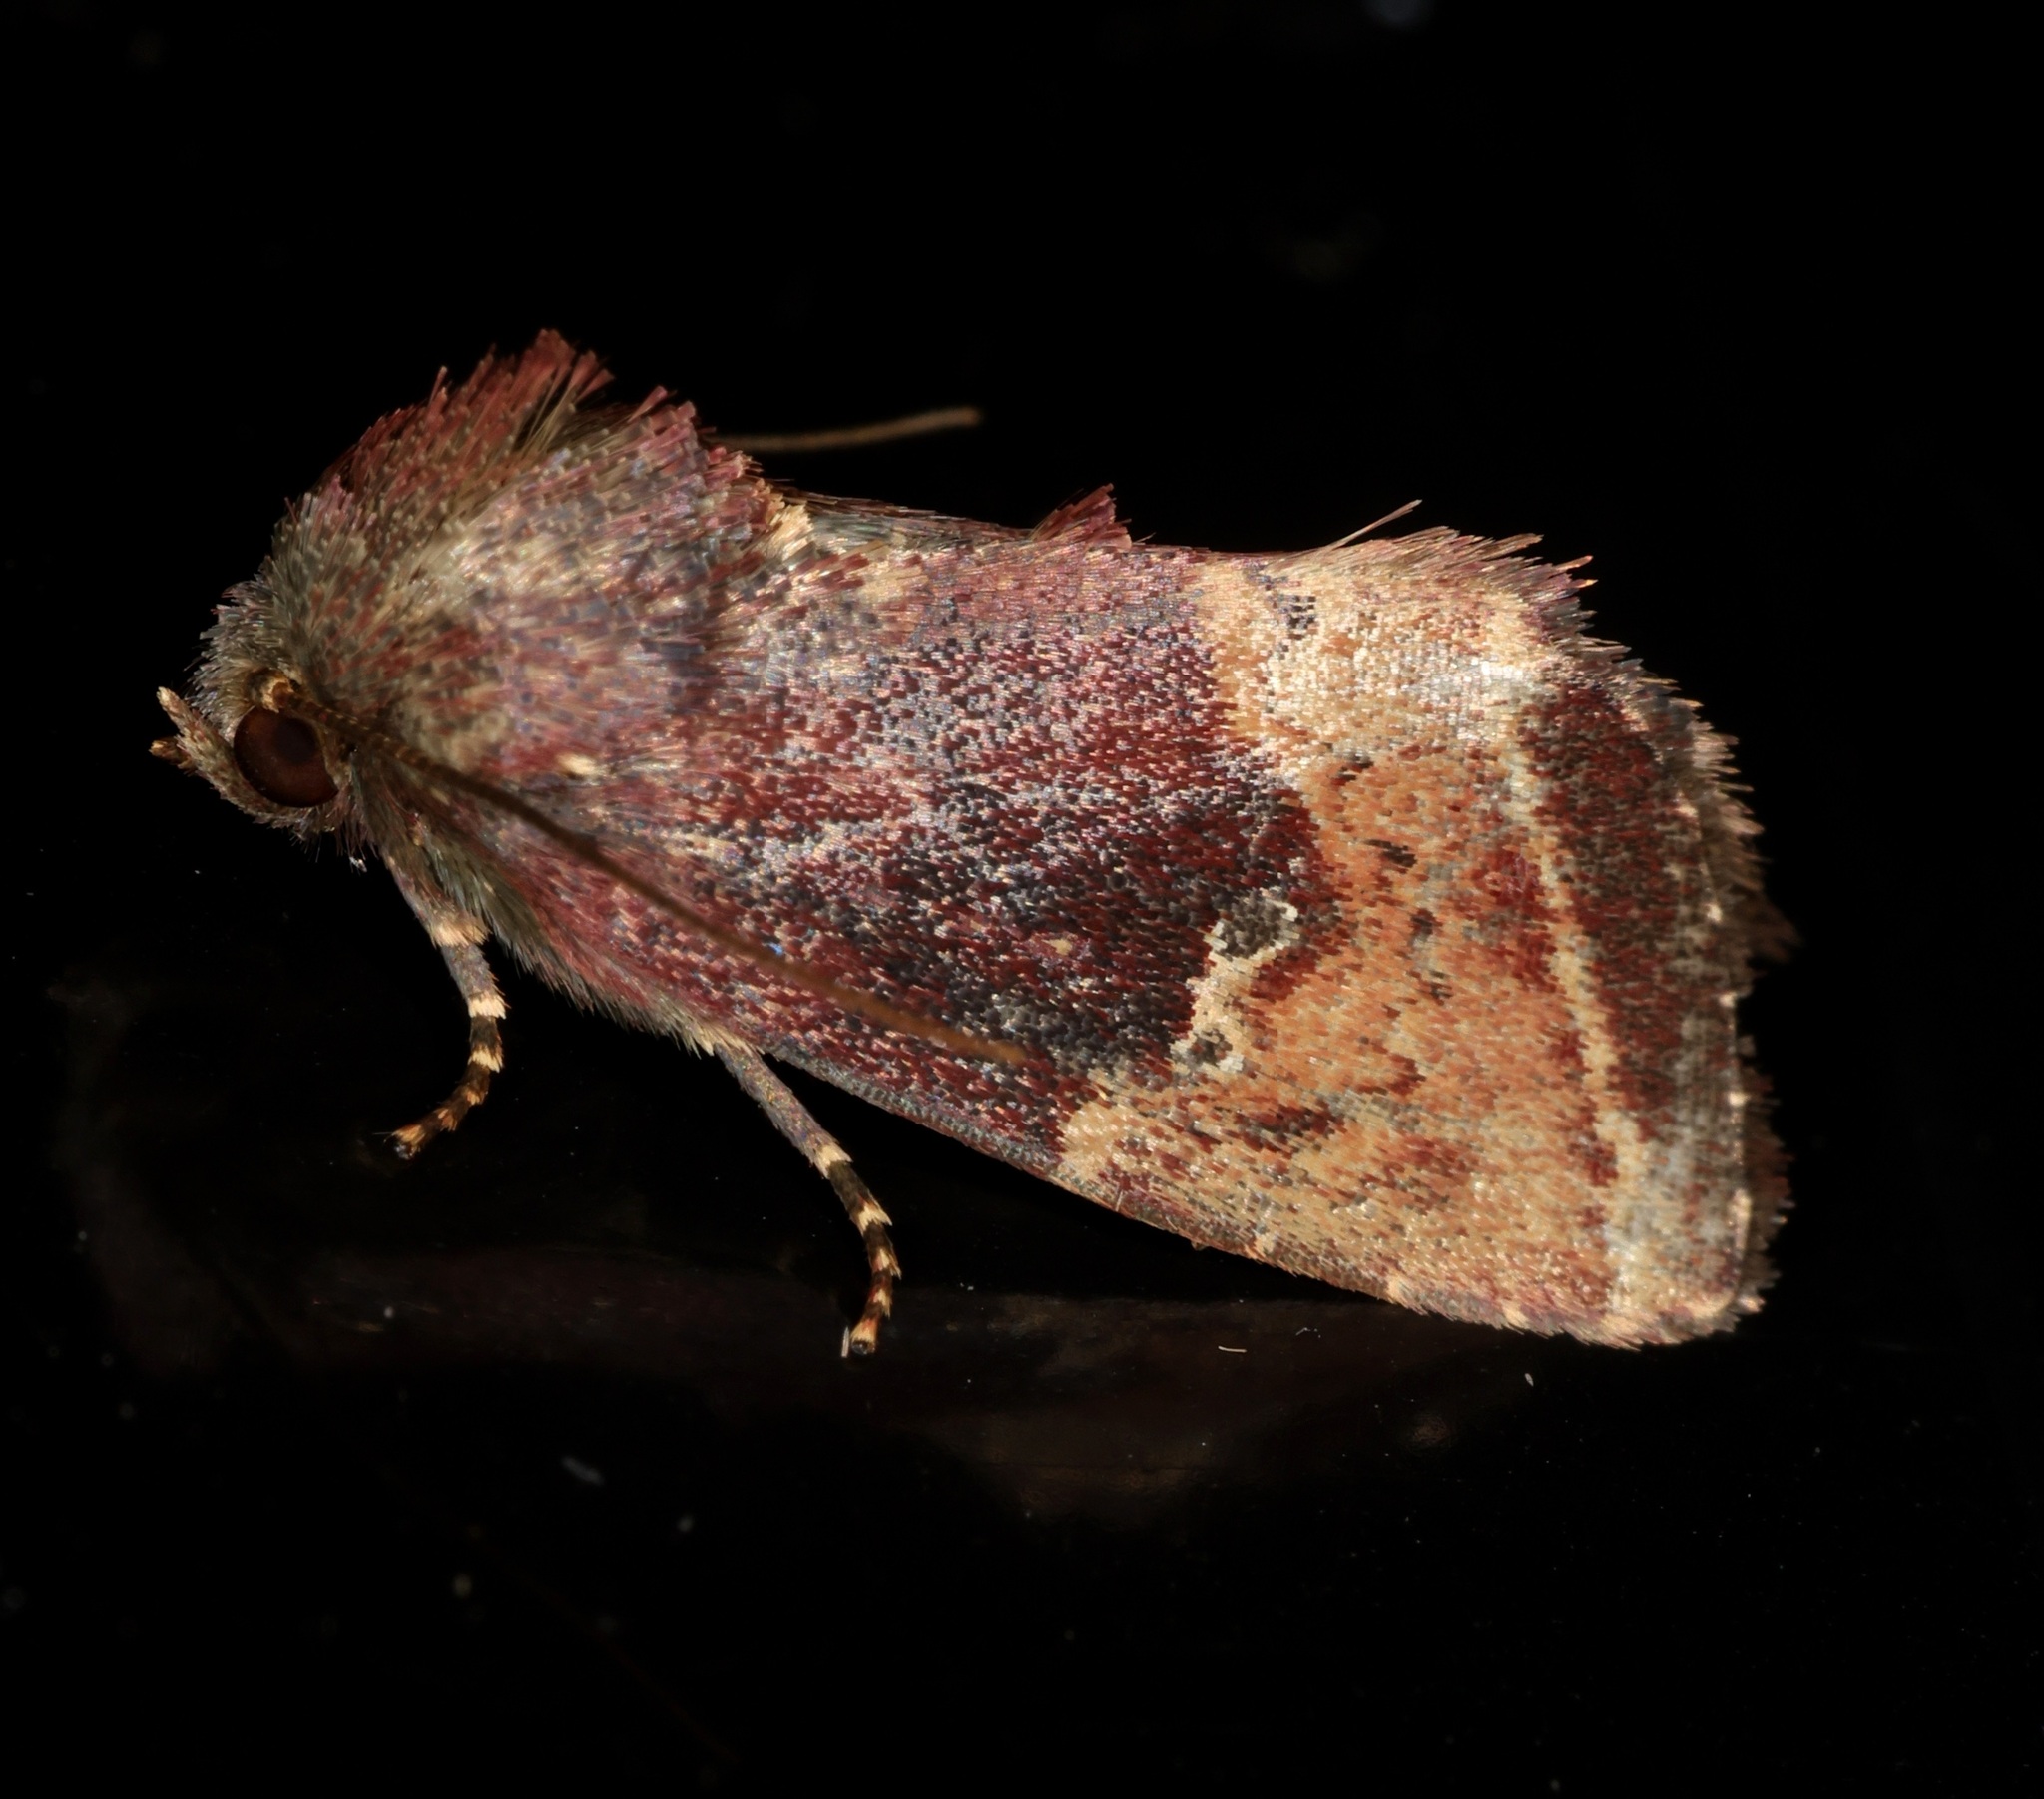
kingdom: Animalia
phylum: Arthropoda
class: Insecta
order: Lepidoptera
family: Noctuidae
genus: Elusa
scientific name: Elusa cyathicornis
